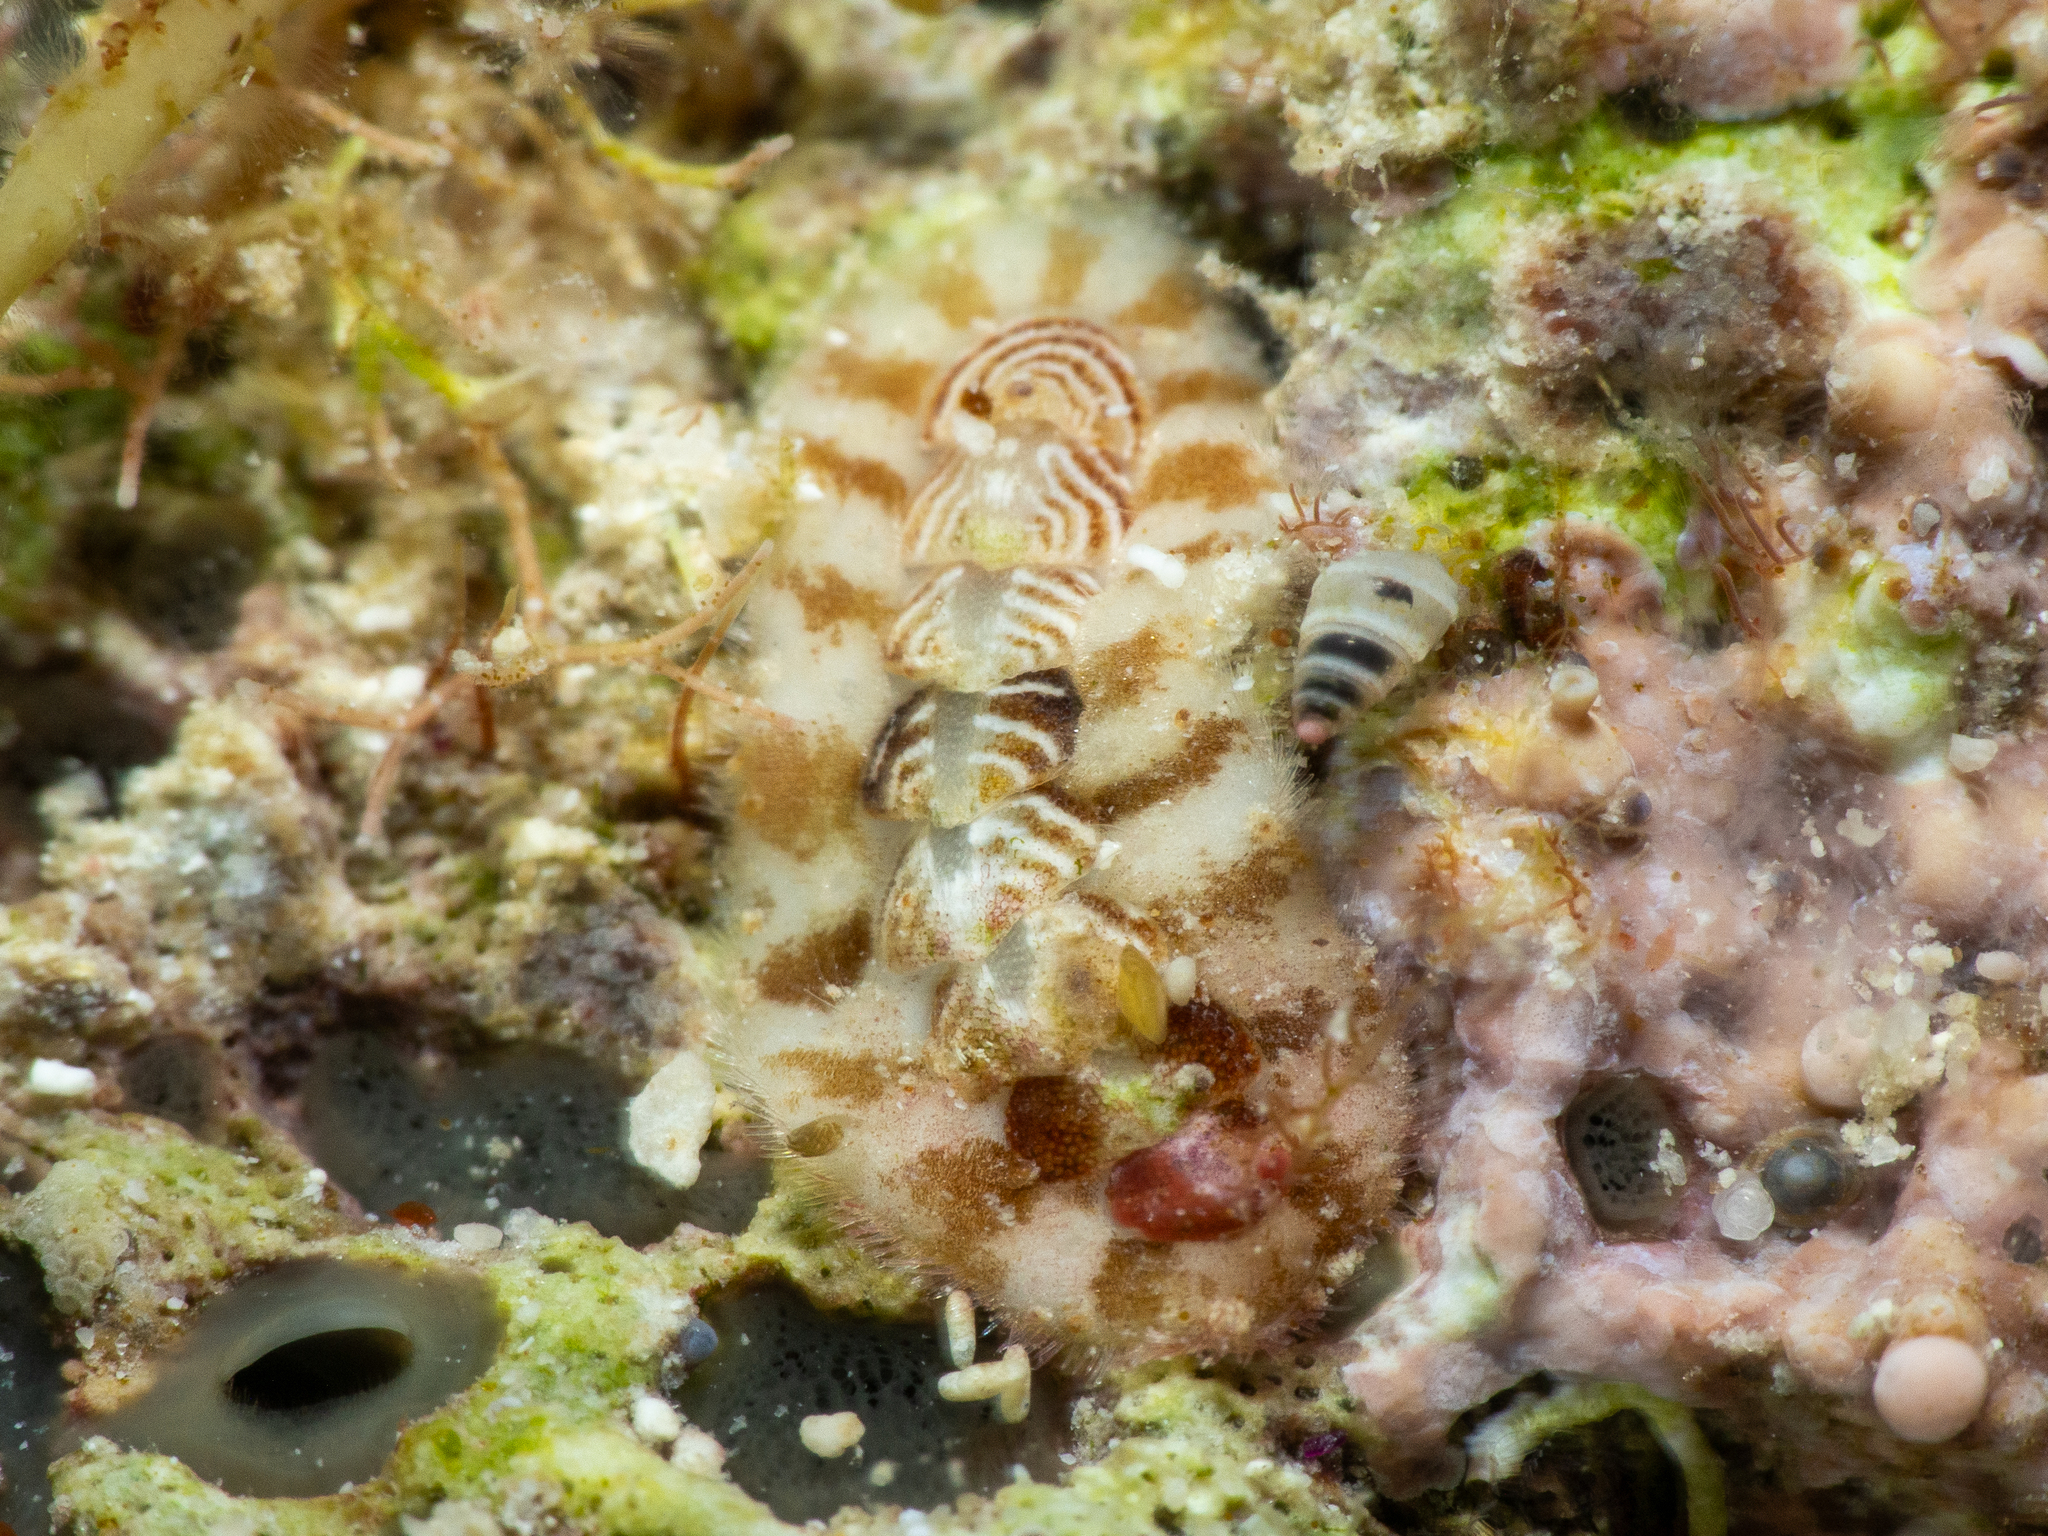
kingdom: Animalia
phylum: Mollusca
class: Polyplacophora
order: Chitonida
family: Acanthochitonidae
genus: Americhiton
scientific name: Americhiton zebra
